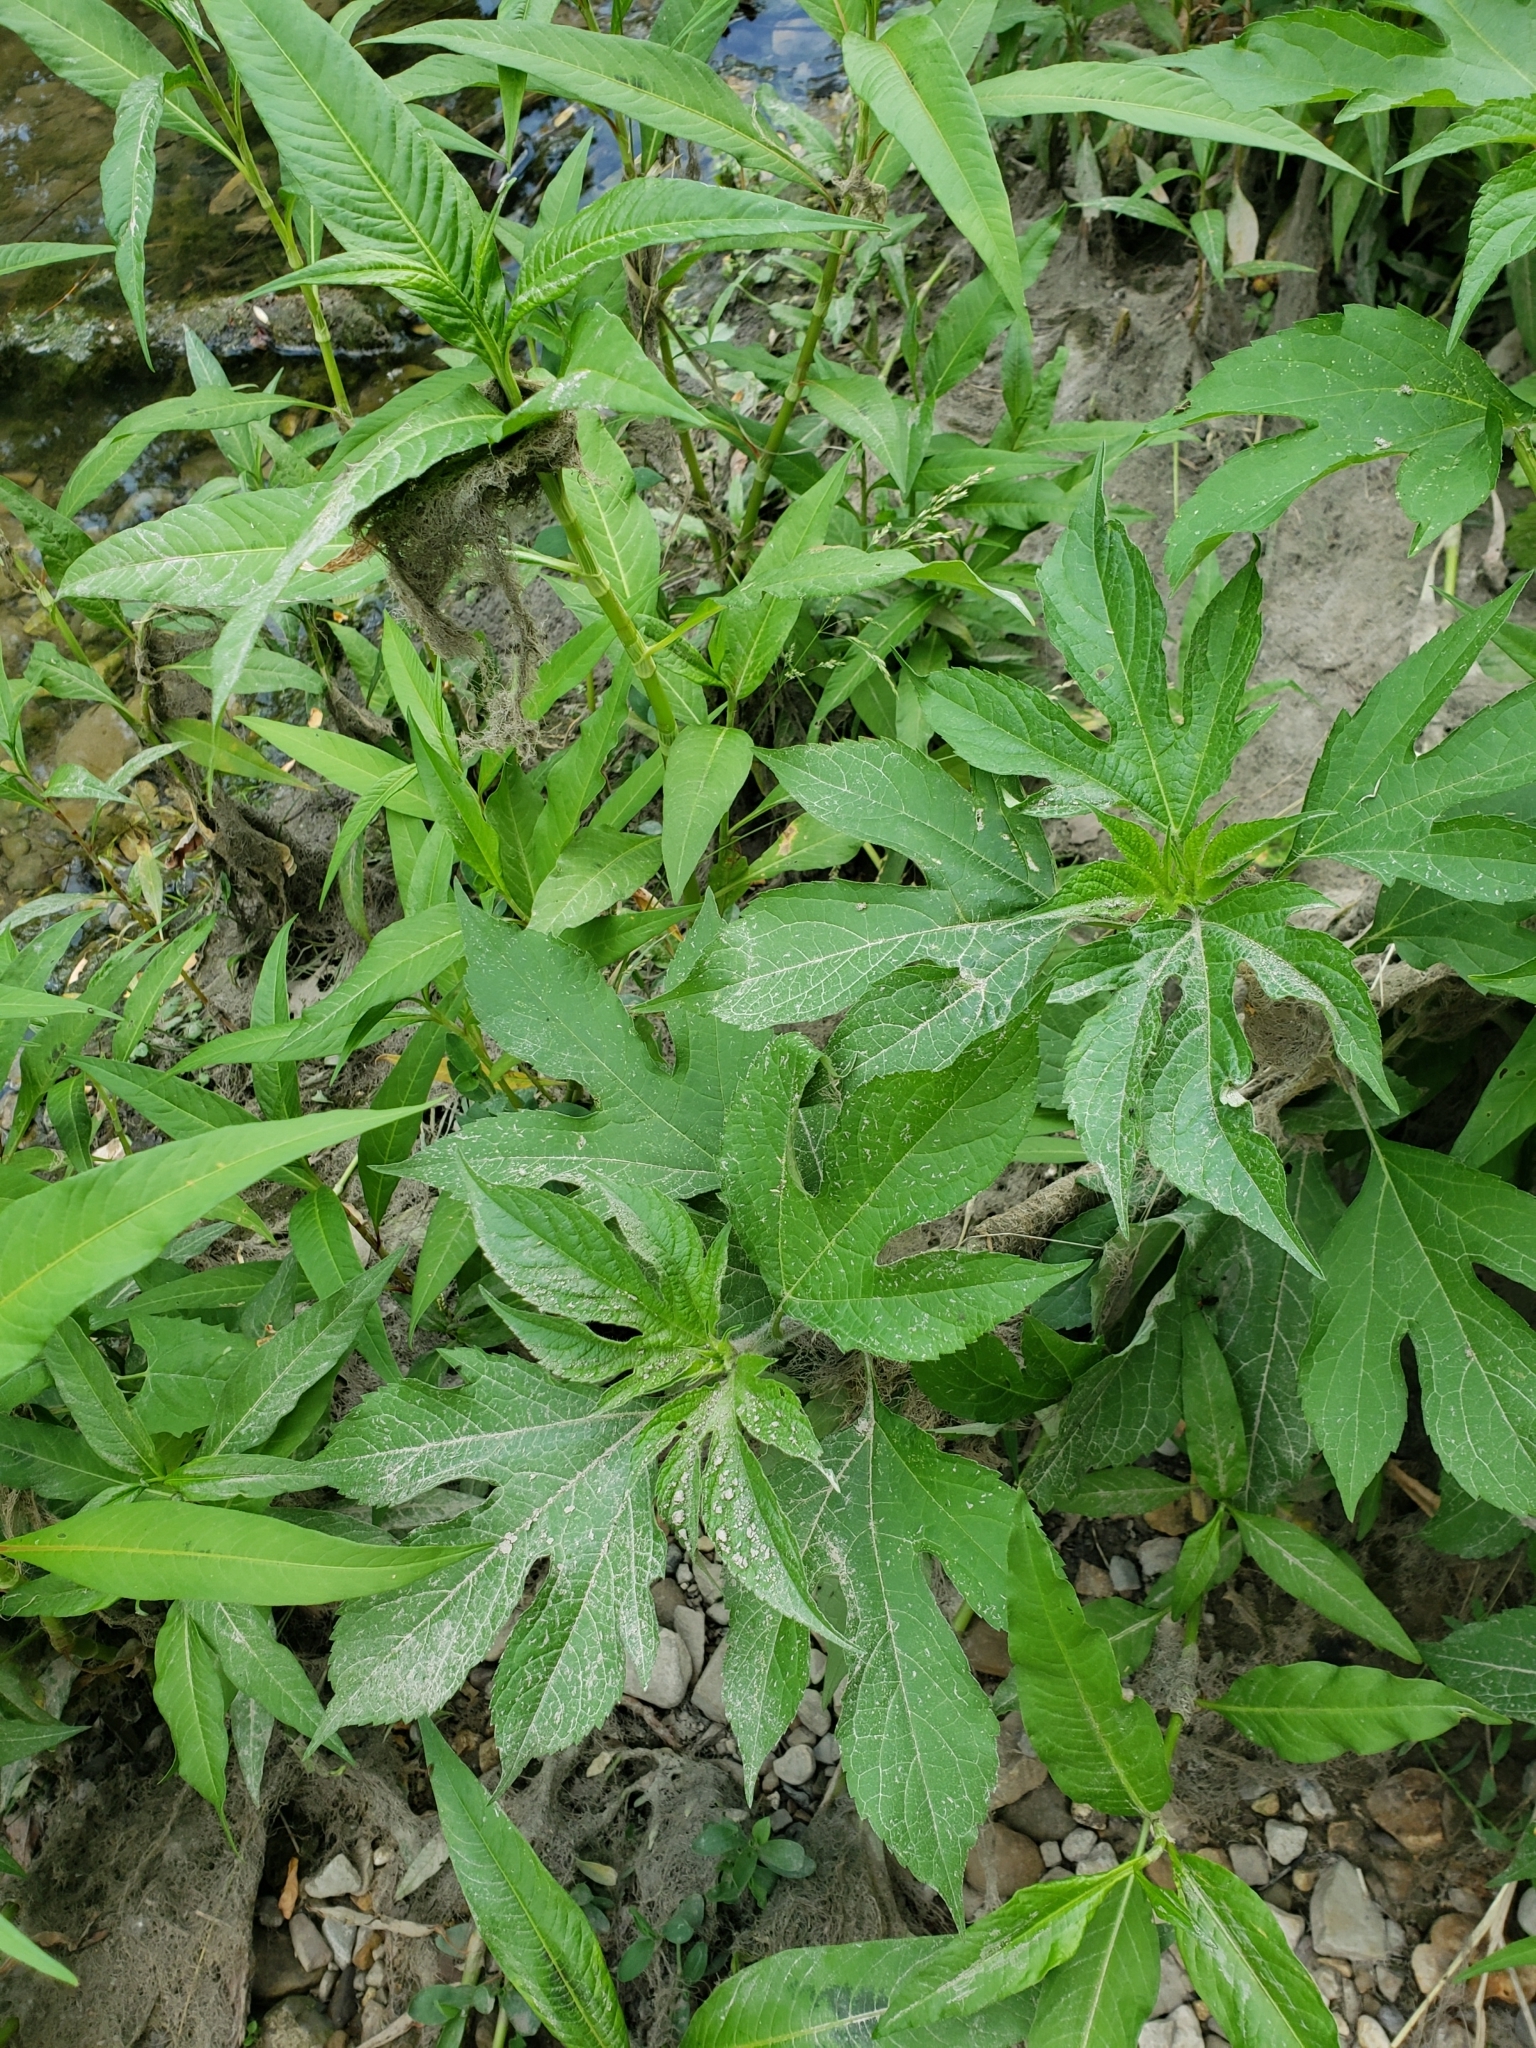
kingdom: Plantae
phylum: Tracheophyta
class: Magnoliopsida
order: Asterales
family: Asteraceae
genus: Ambrosia
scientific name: Ambrosia trifida
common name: Giant ragweed
